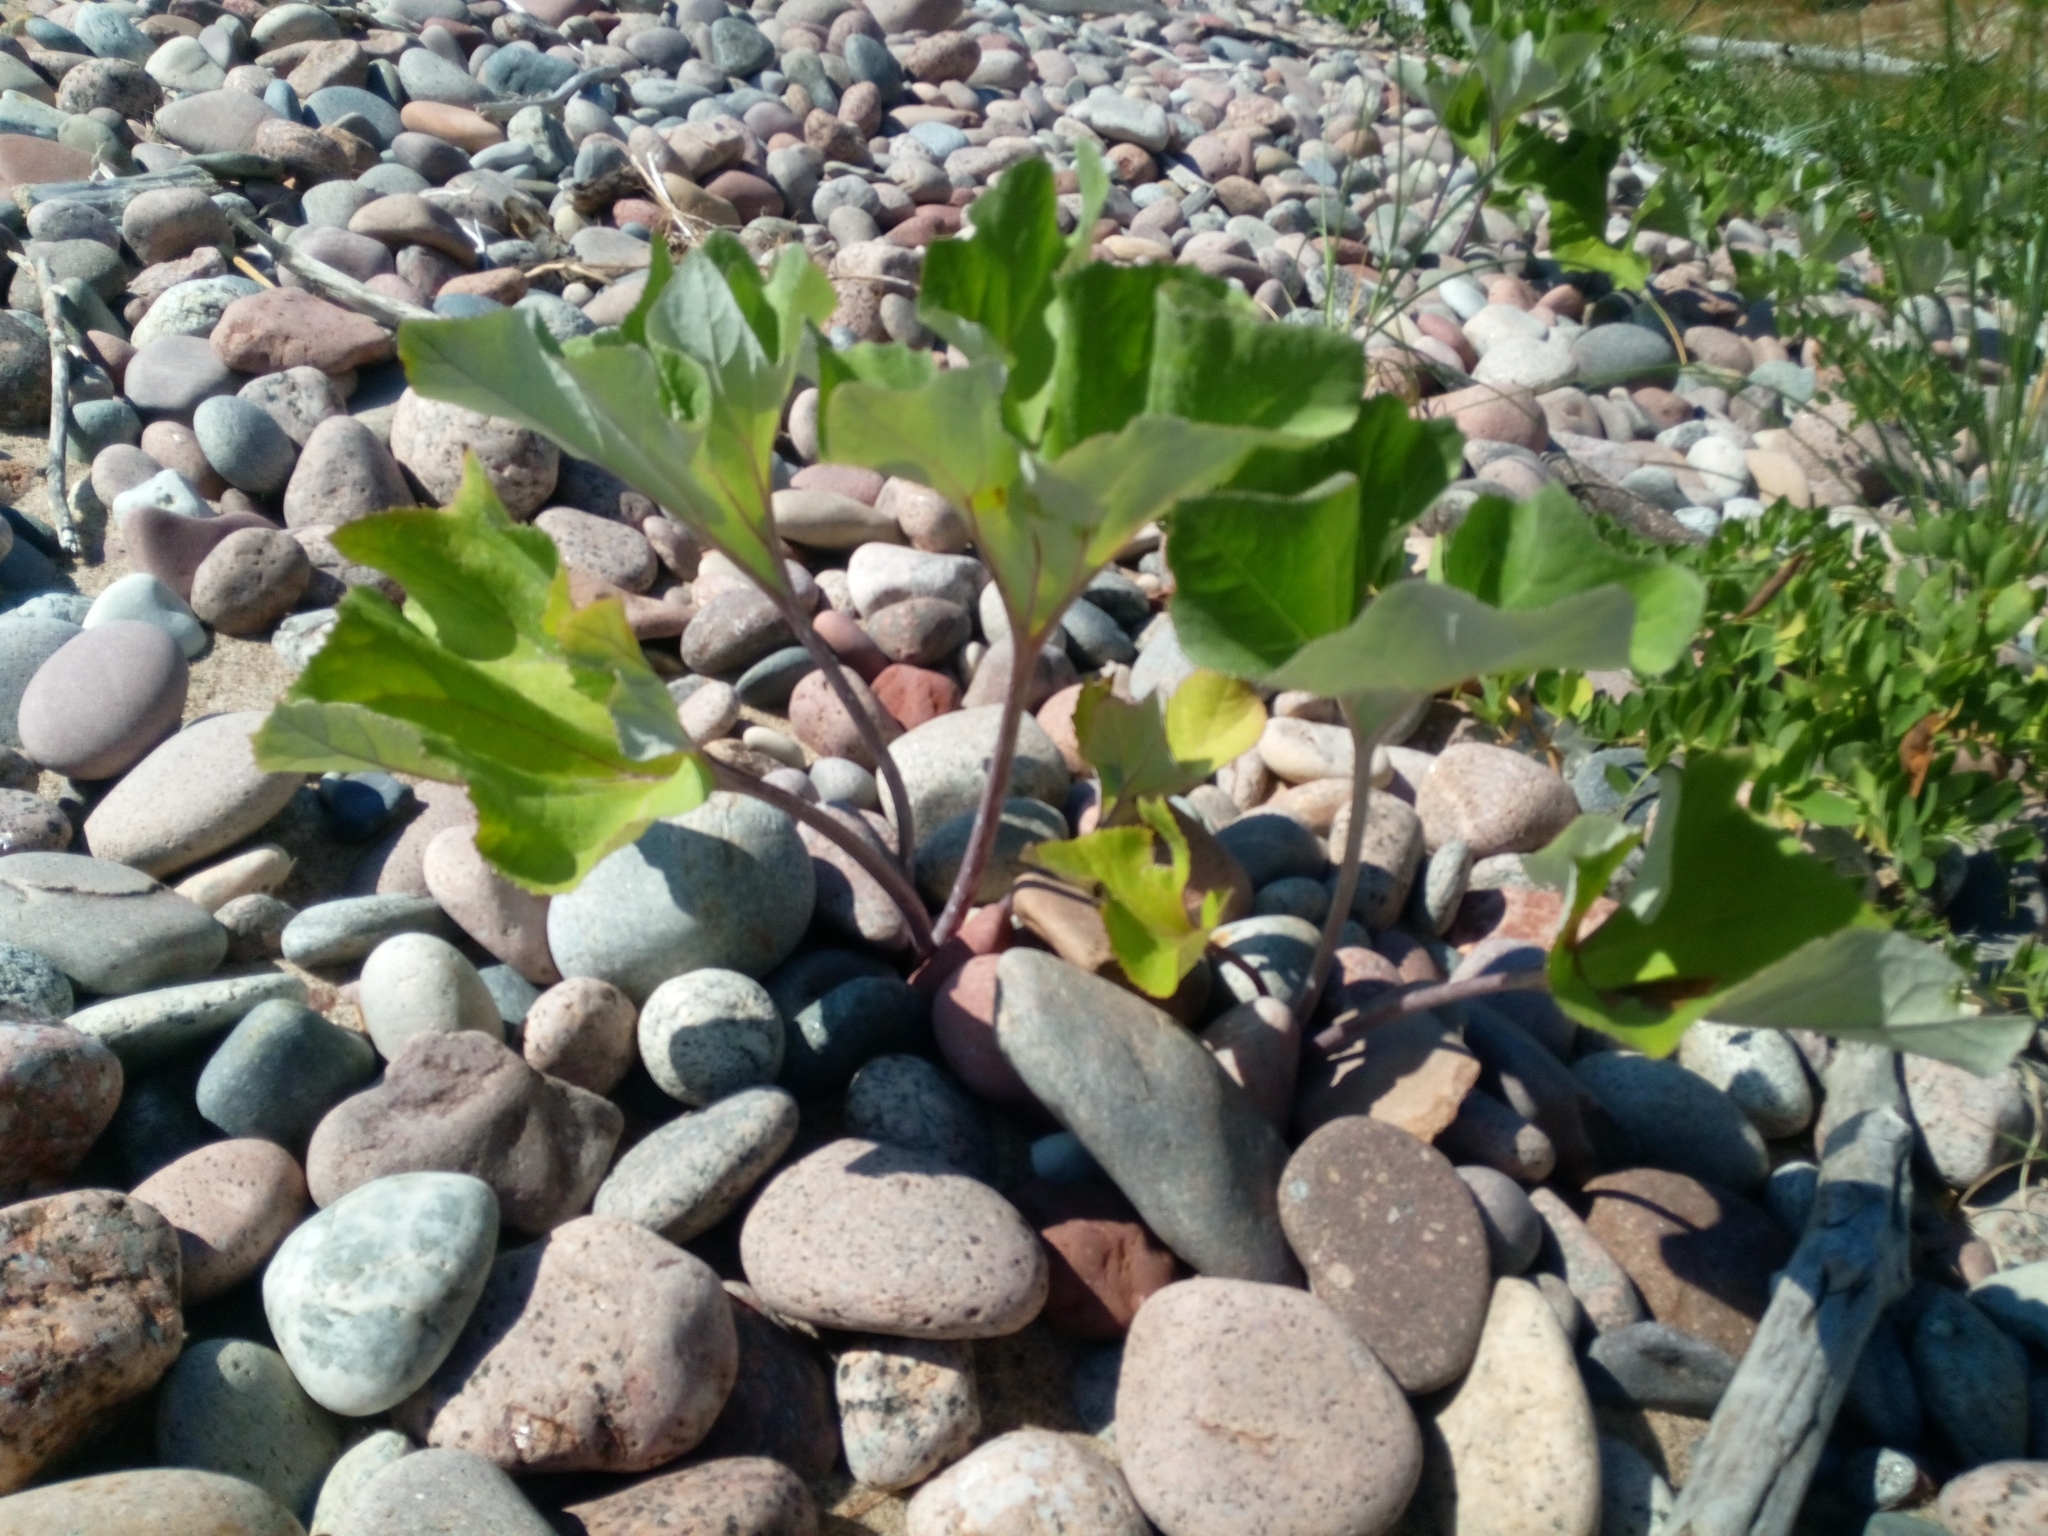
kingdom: Plantae
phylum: Tracheophyta
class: Magnoliopsida
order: Asterales
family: Asteraceae
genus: Petasites
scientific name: Petasites spurius
